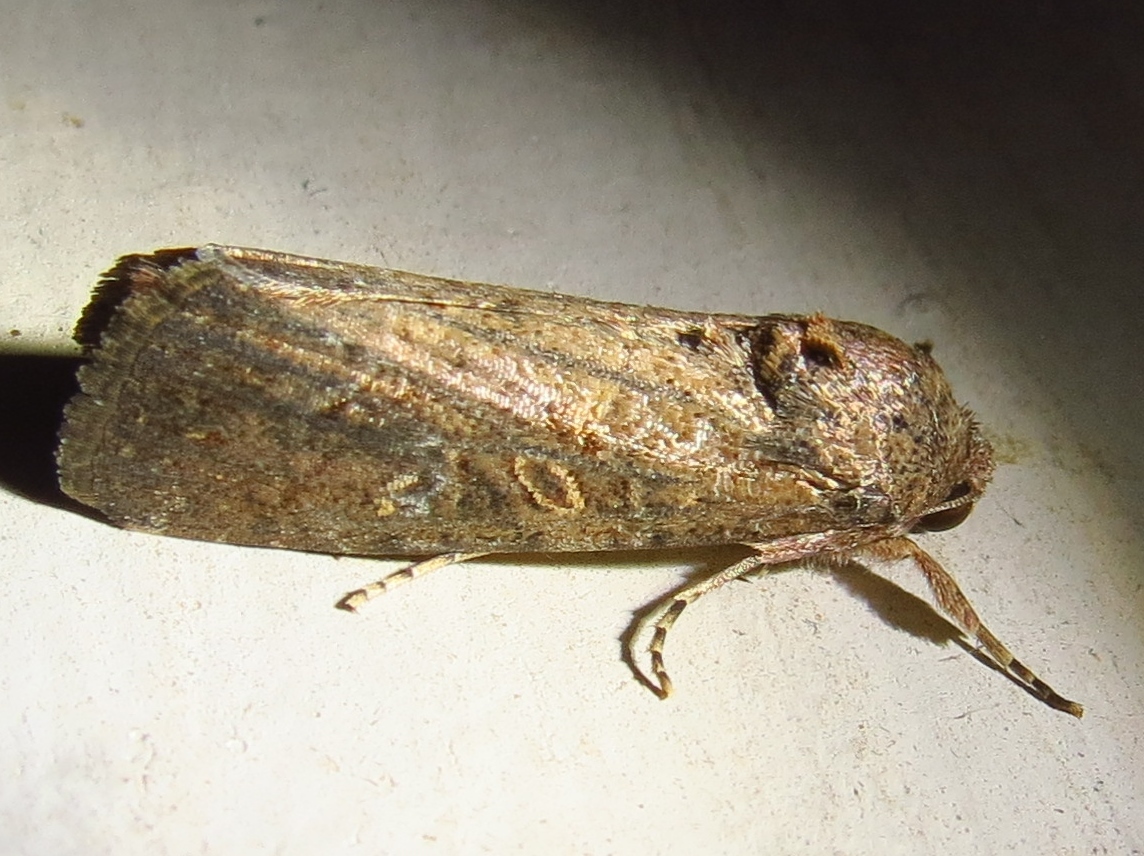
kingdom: Animalia
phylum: Arthropoda
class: Insecta
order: Lepidoptera
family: Noctuidae
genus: Spodoptera
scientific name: Spodoptera frugiperda
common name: Fall armyworm
